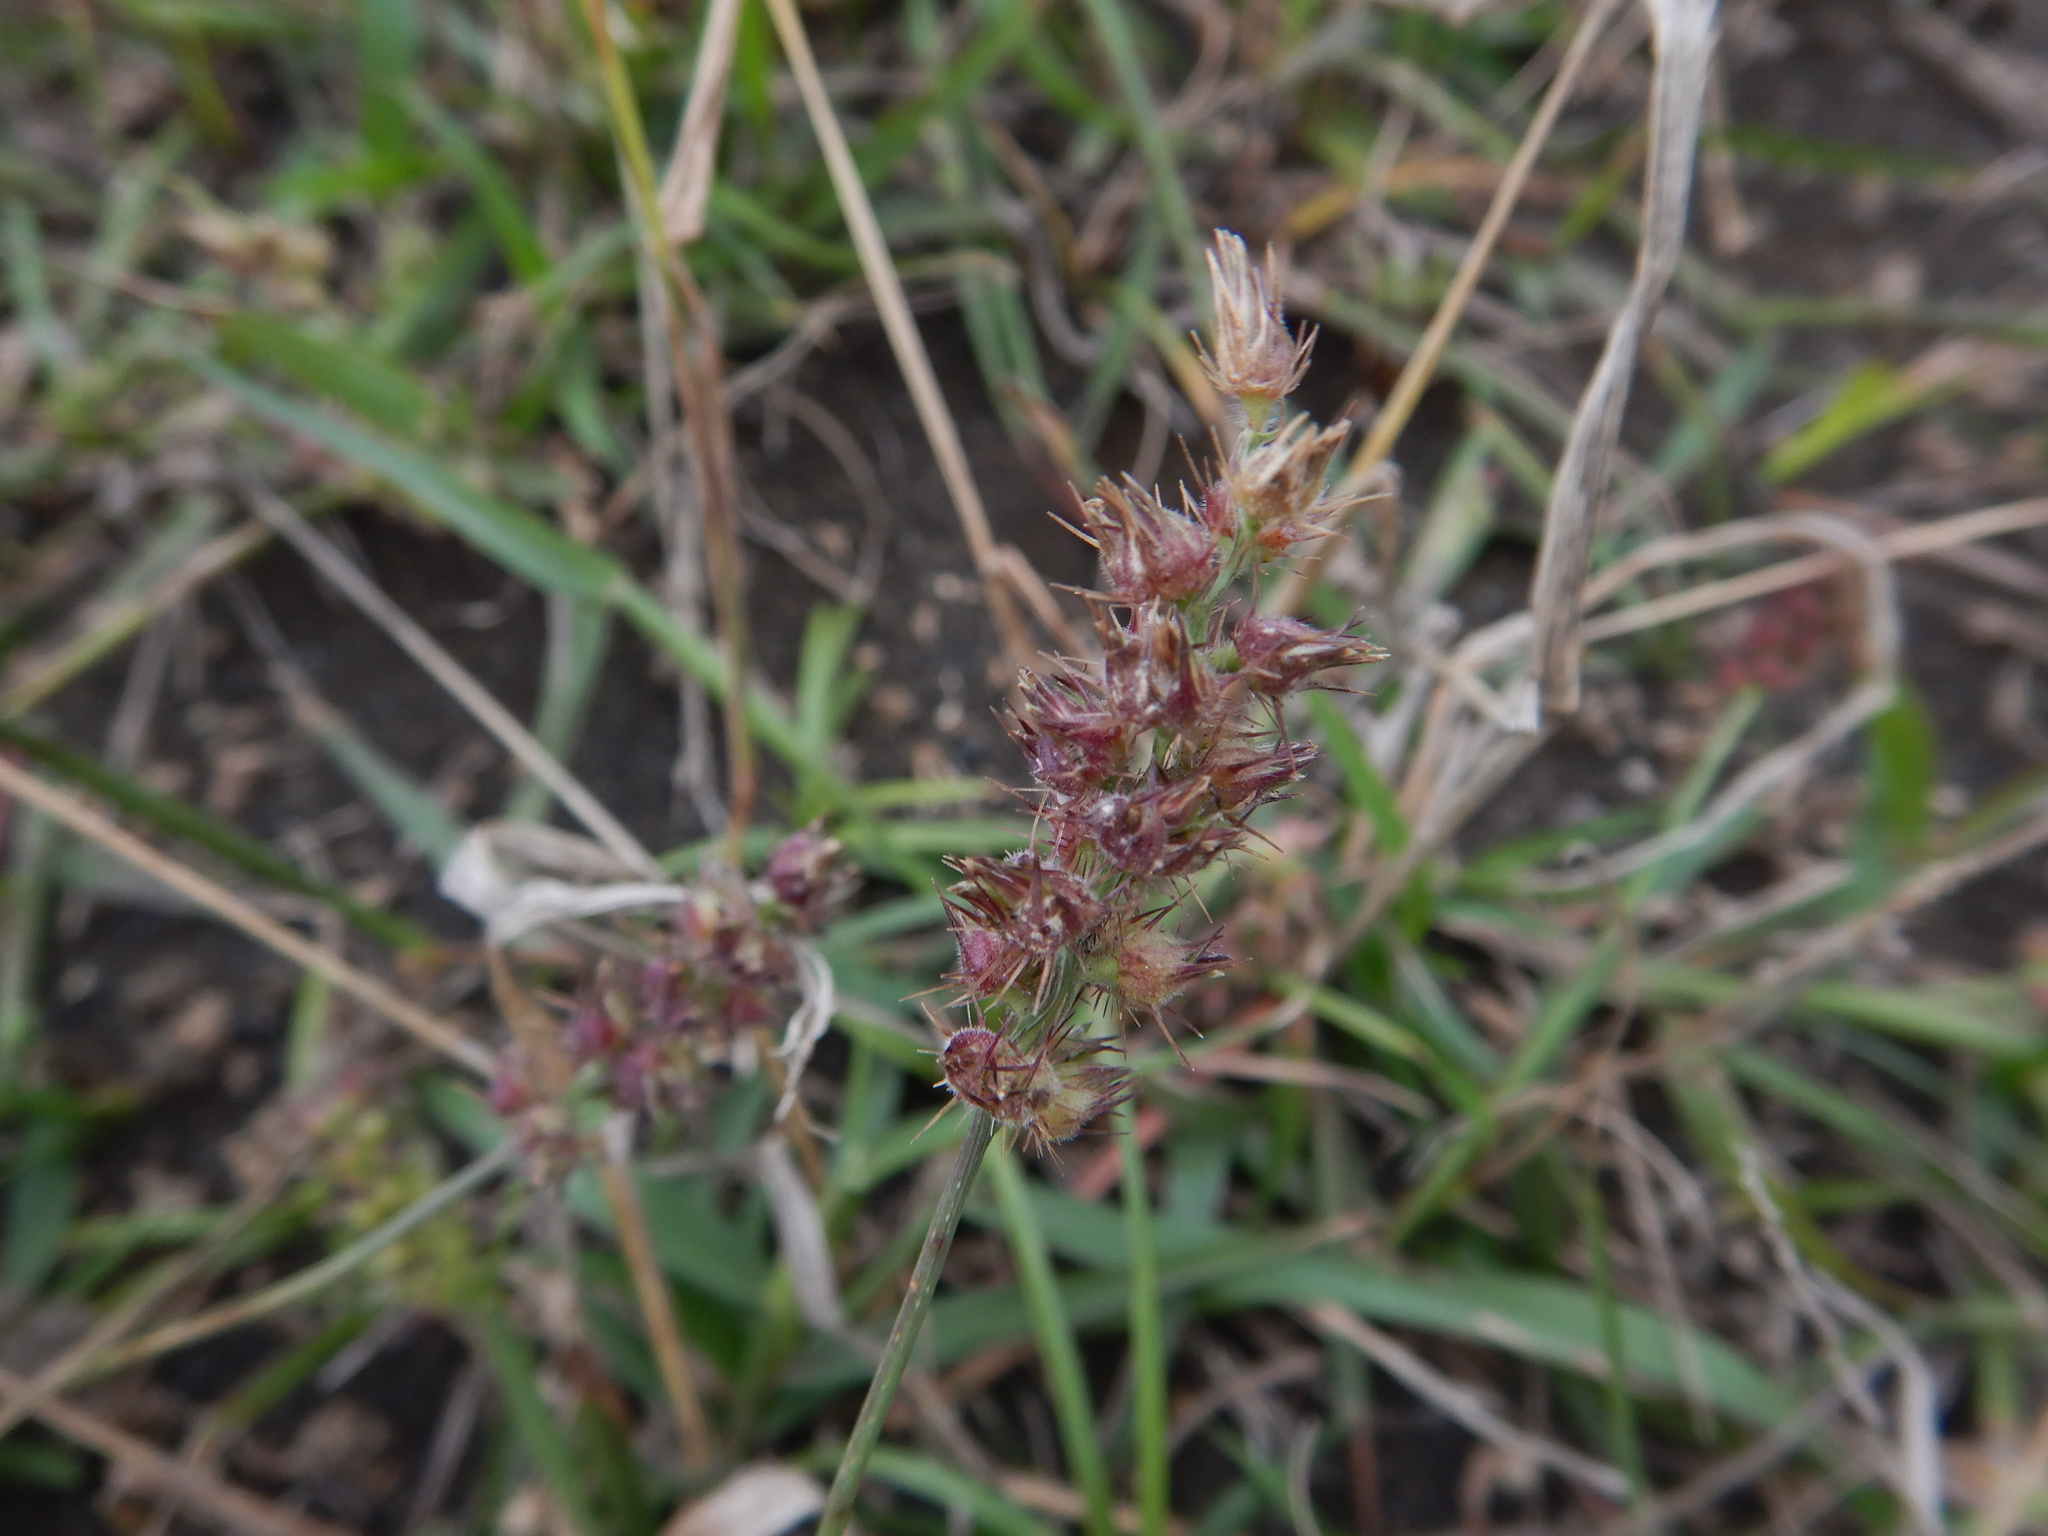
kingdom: Plantae
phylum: Tracheophyta
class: Liliopsida
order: Poales
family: Poaceae
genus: Cenchrus
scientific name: Cenchrus echinatus
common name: Southern sandbur
